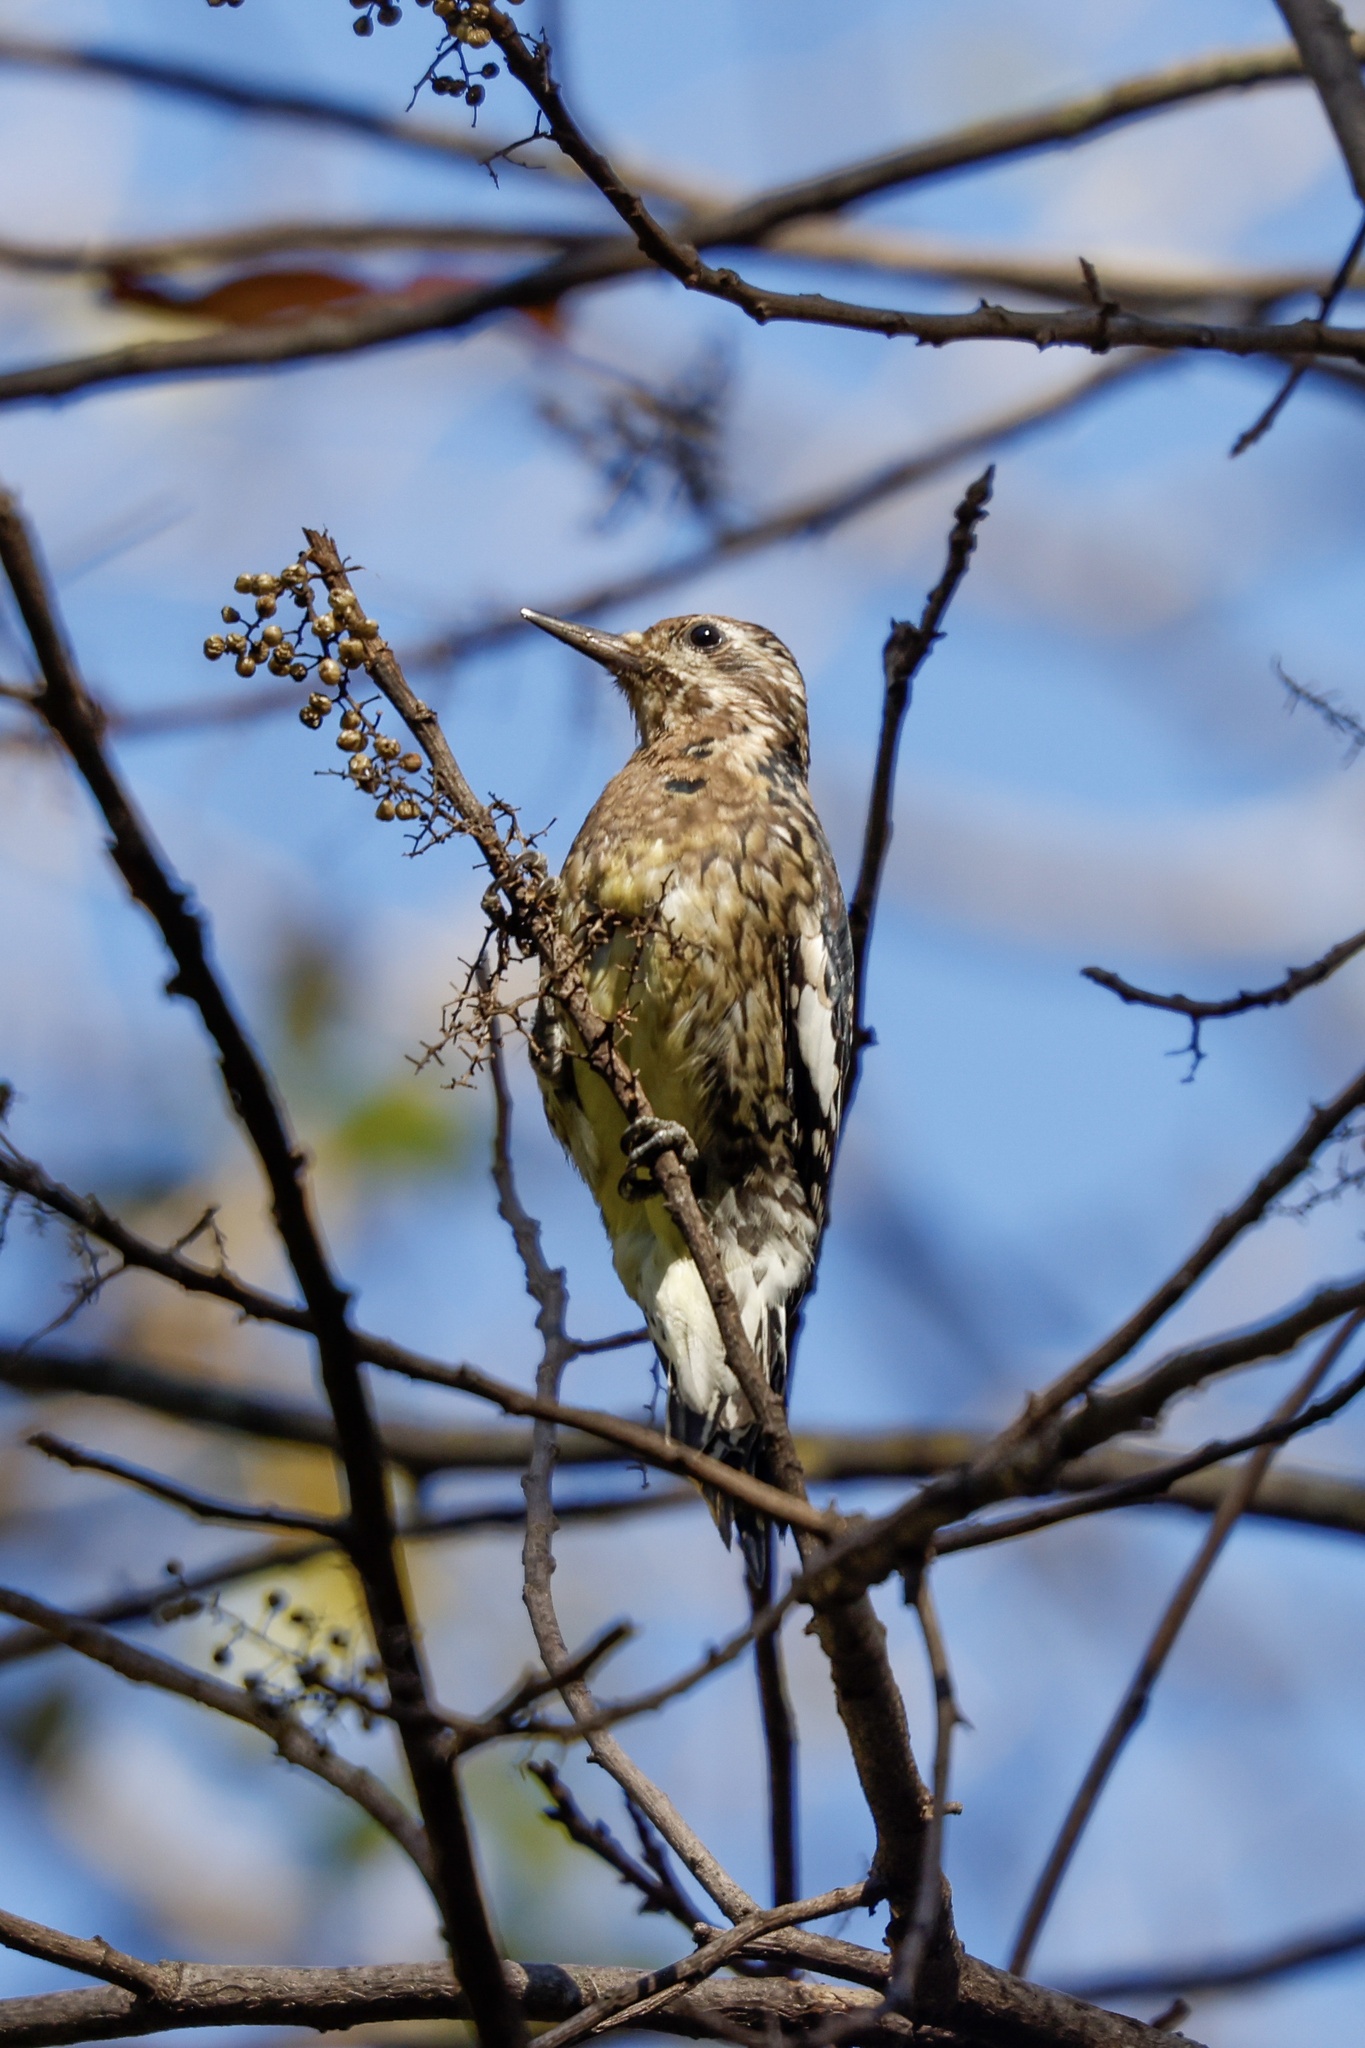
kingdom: Animalia
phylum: Chordata
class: Aves
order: Piciformes
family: Picidae
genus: Sphyrapicus
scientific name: Sphyrapicus varius
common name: Yellow-bellied sapsucker
